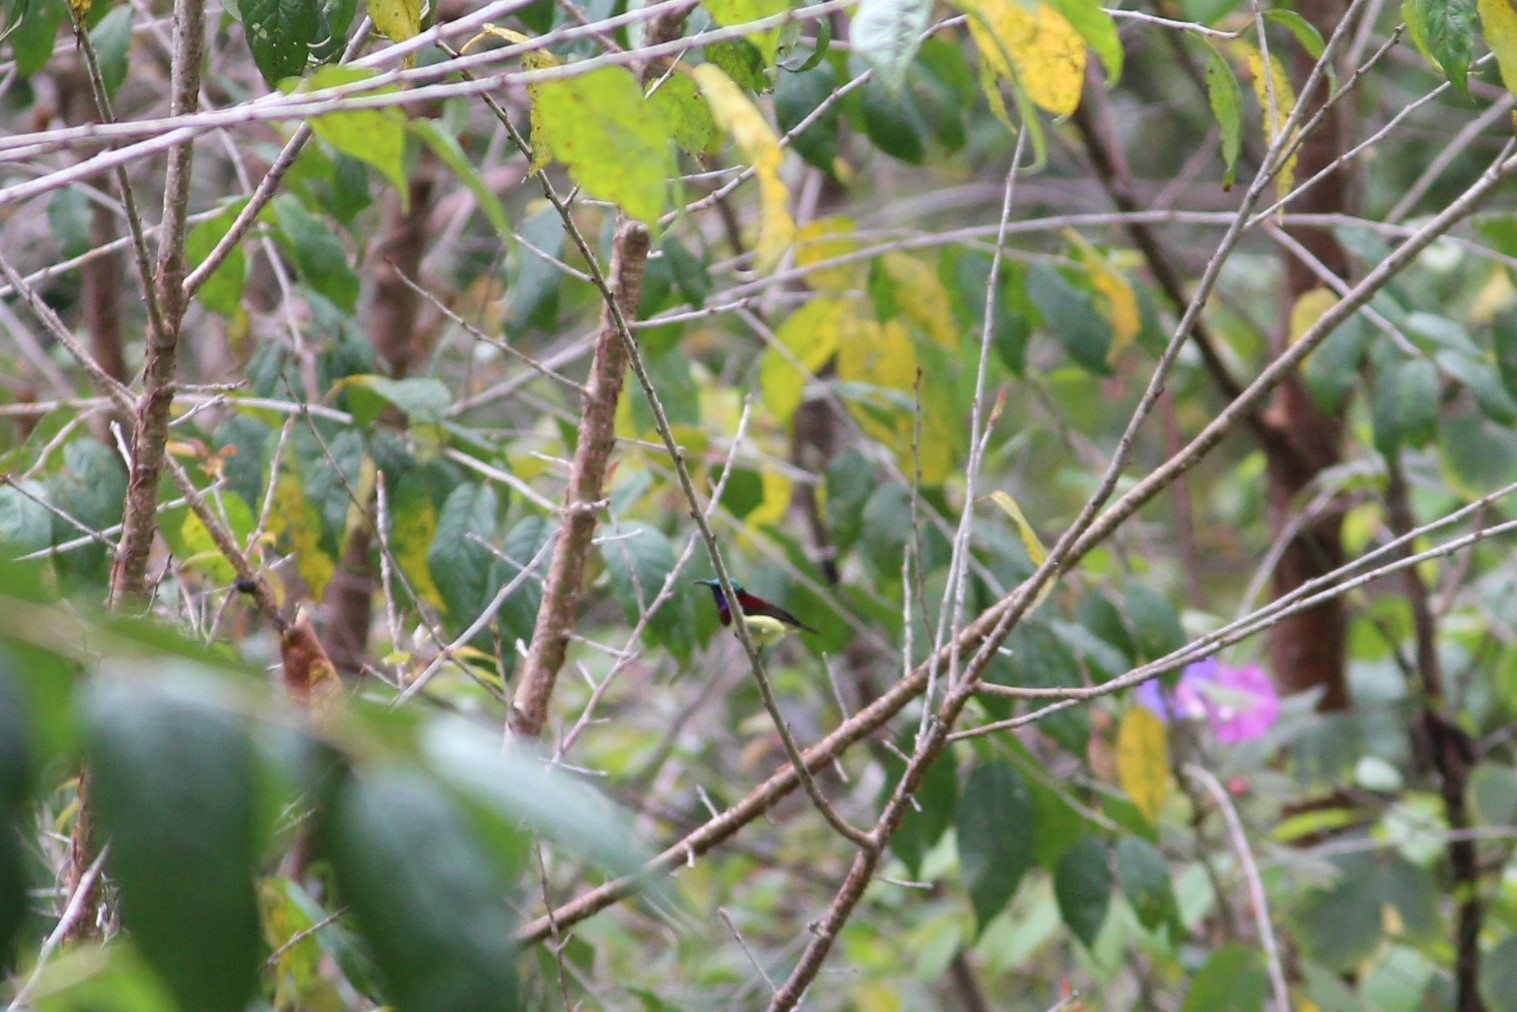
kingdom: Animalia
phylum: Chordata
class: Aves
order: Passeriformes
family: Nectariniidae
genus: Leptocoma
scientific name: Leptocoma minima
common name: Crimson-backed sunbird
